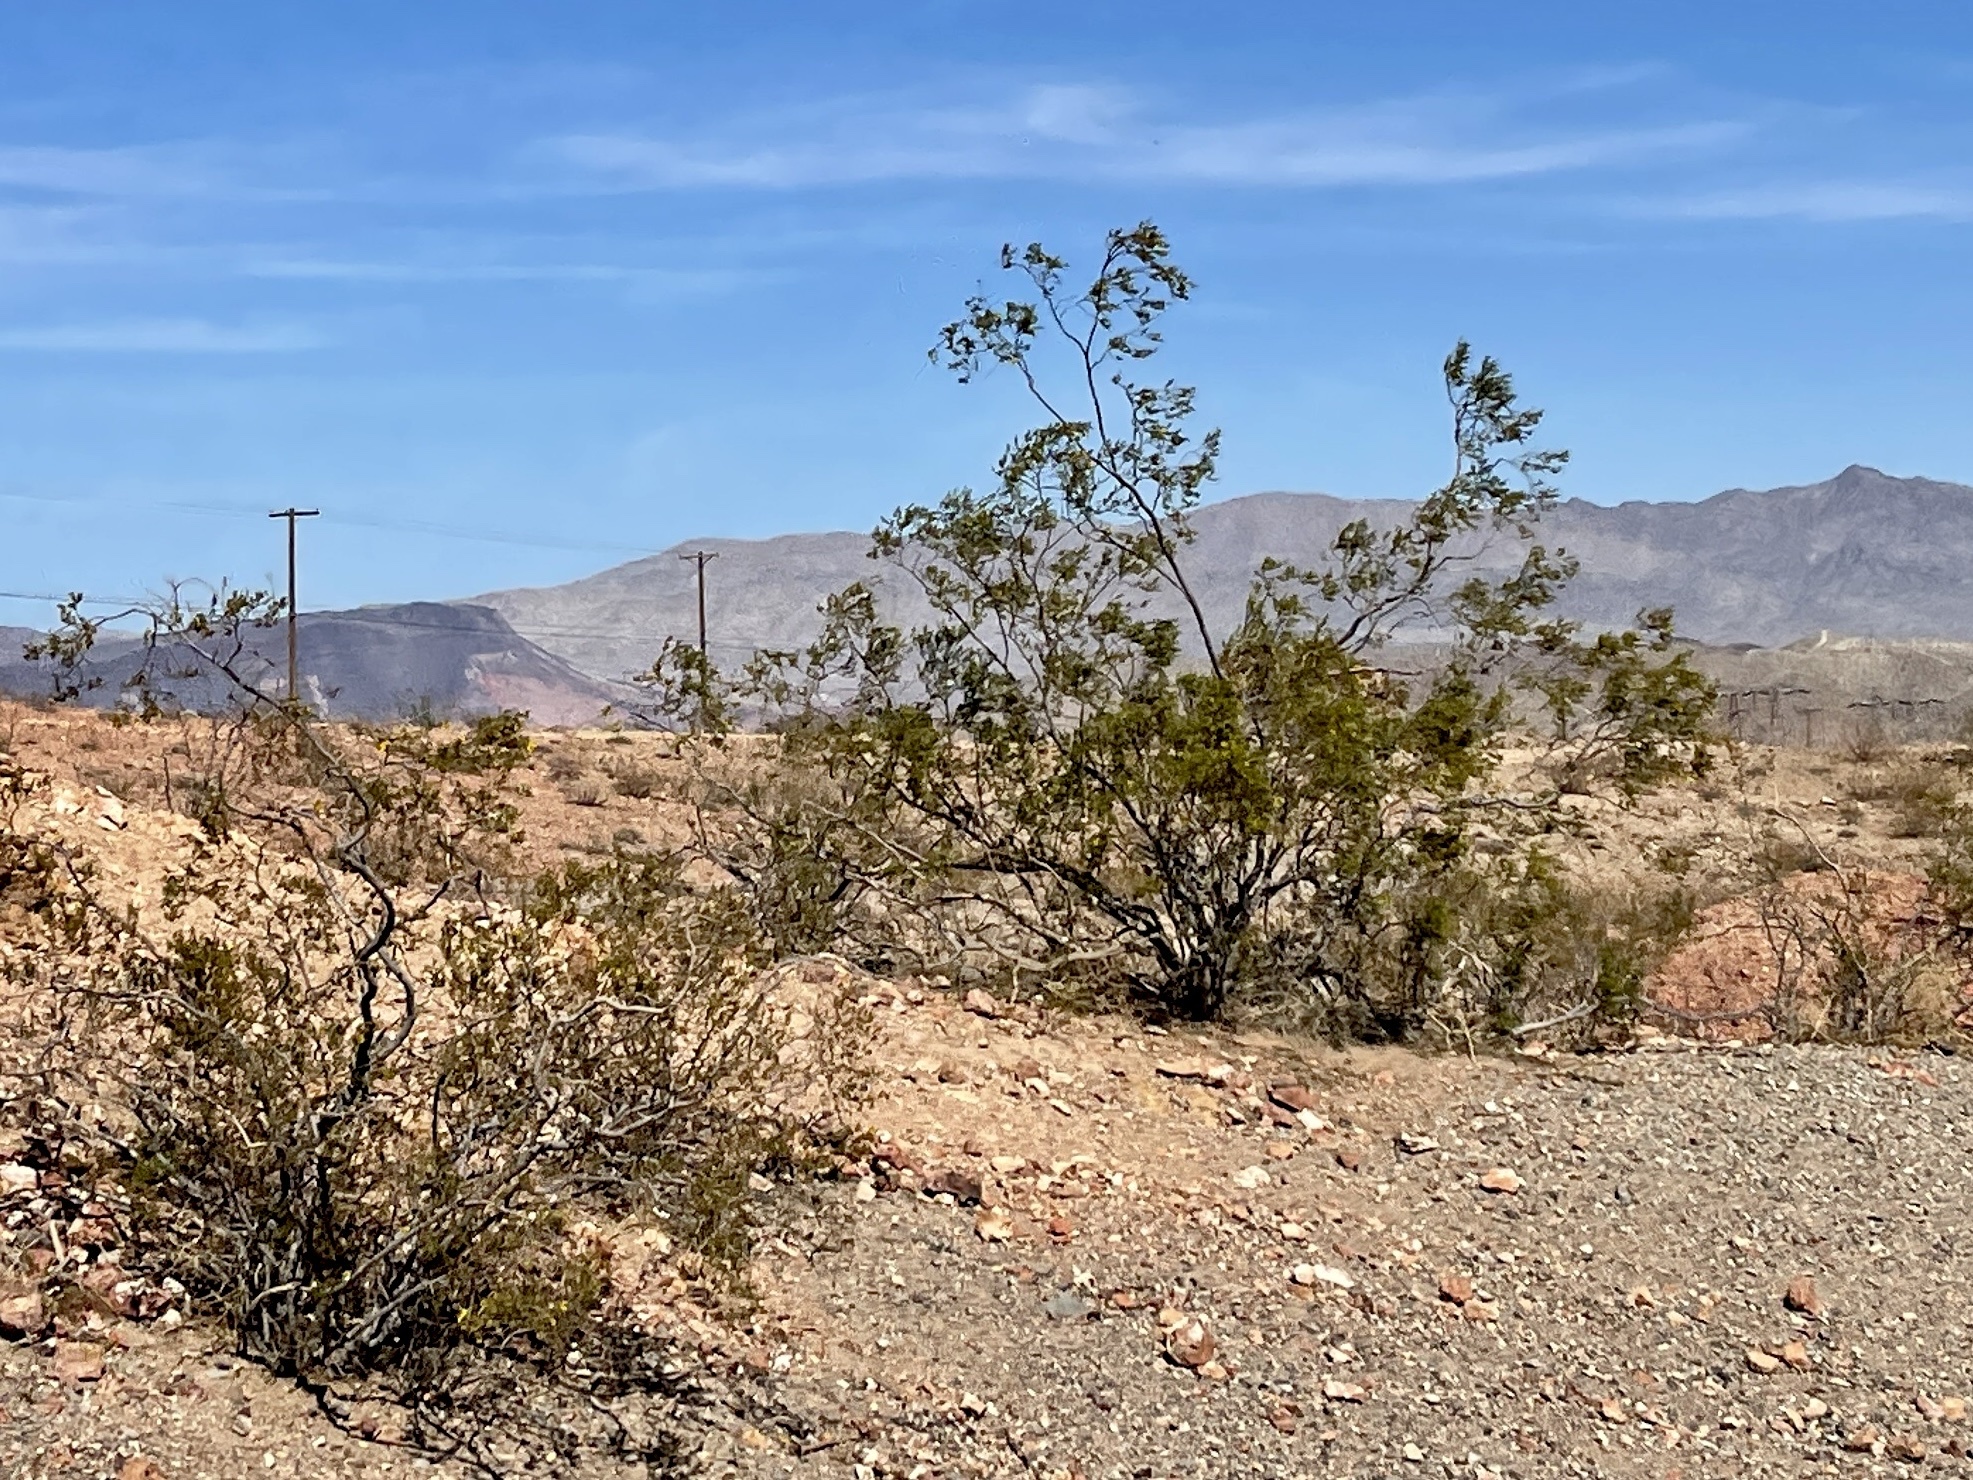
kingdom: Plantae
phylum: Tracheophyta
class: Magnoliopsida
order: Zygophyllales
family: Zygophyllaceae
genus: Larrea
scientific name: Larrea tridentata
